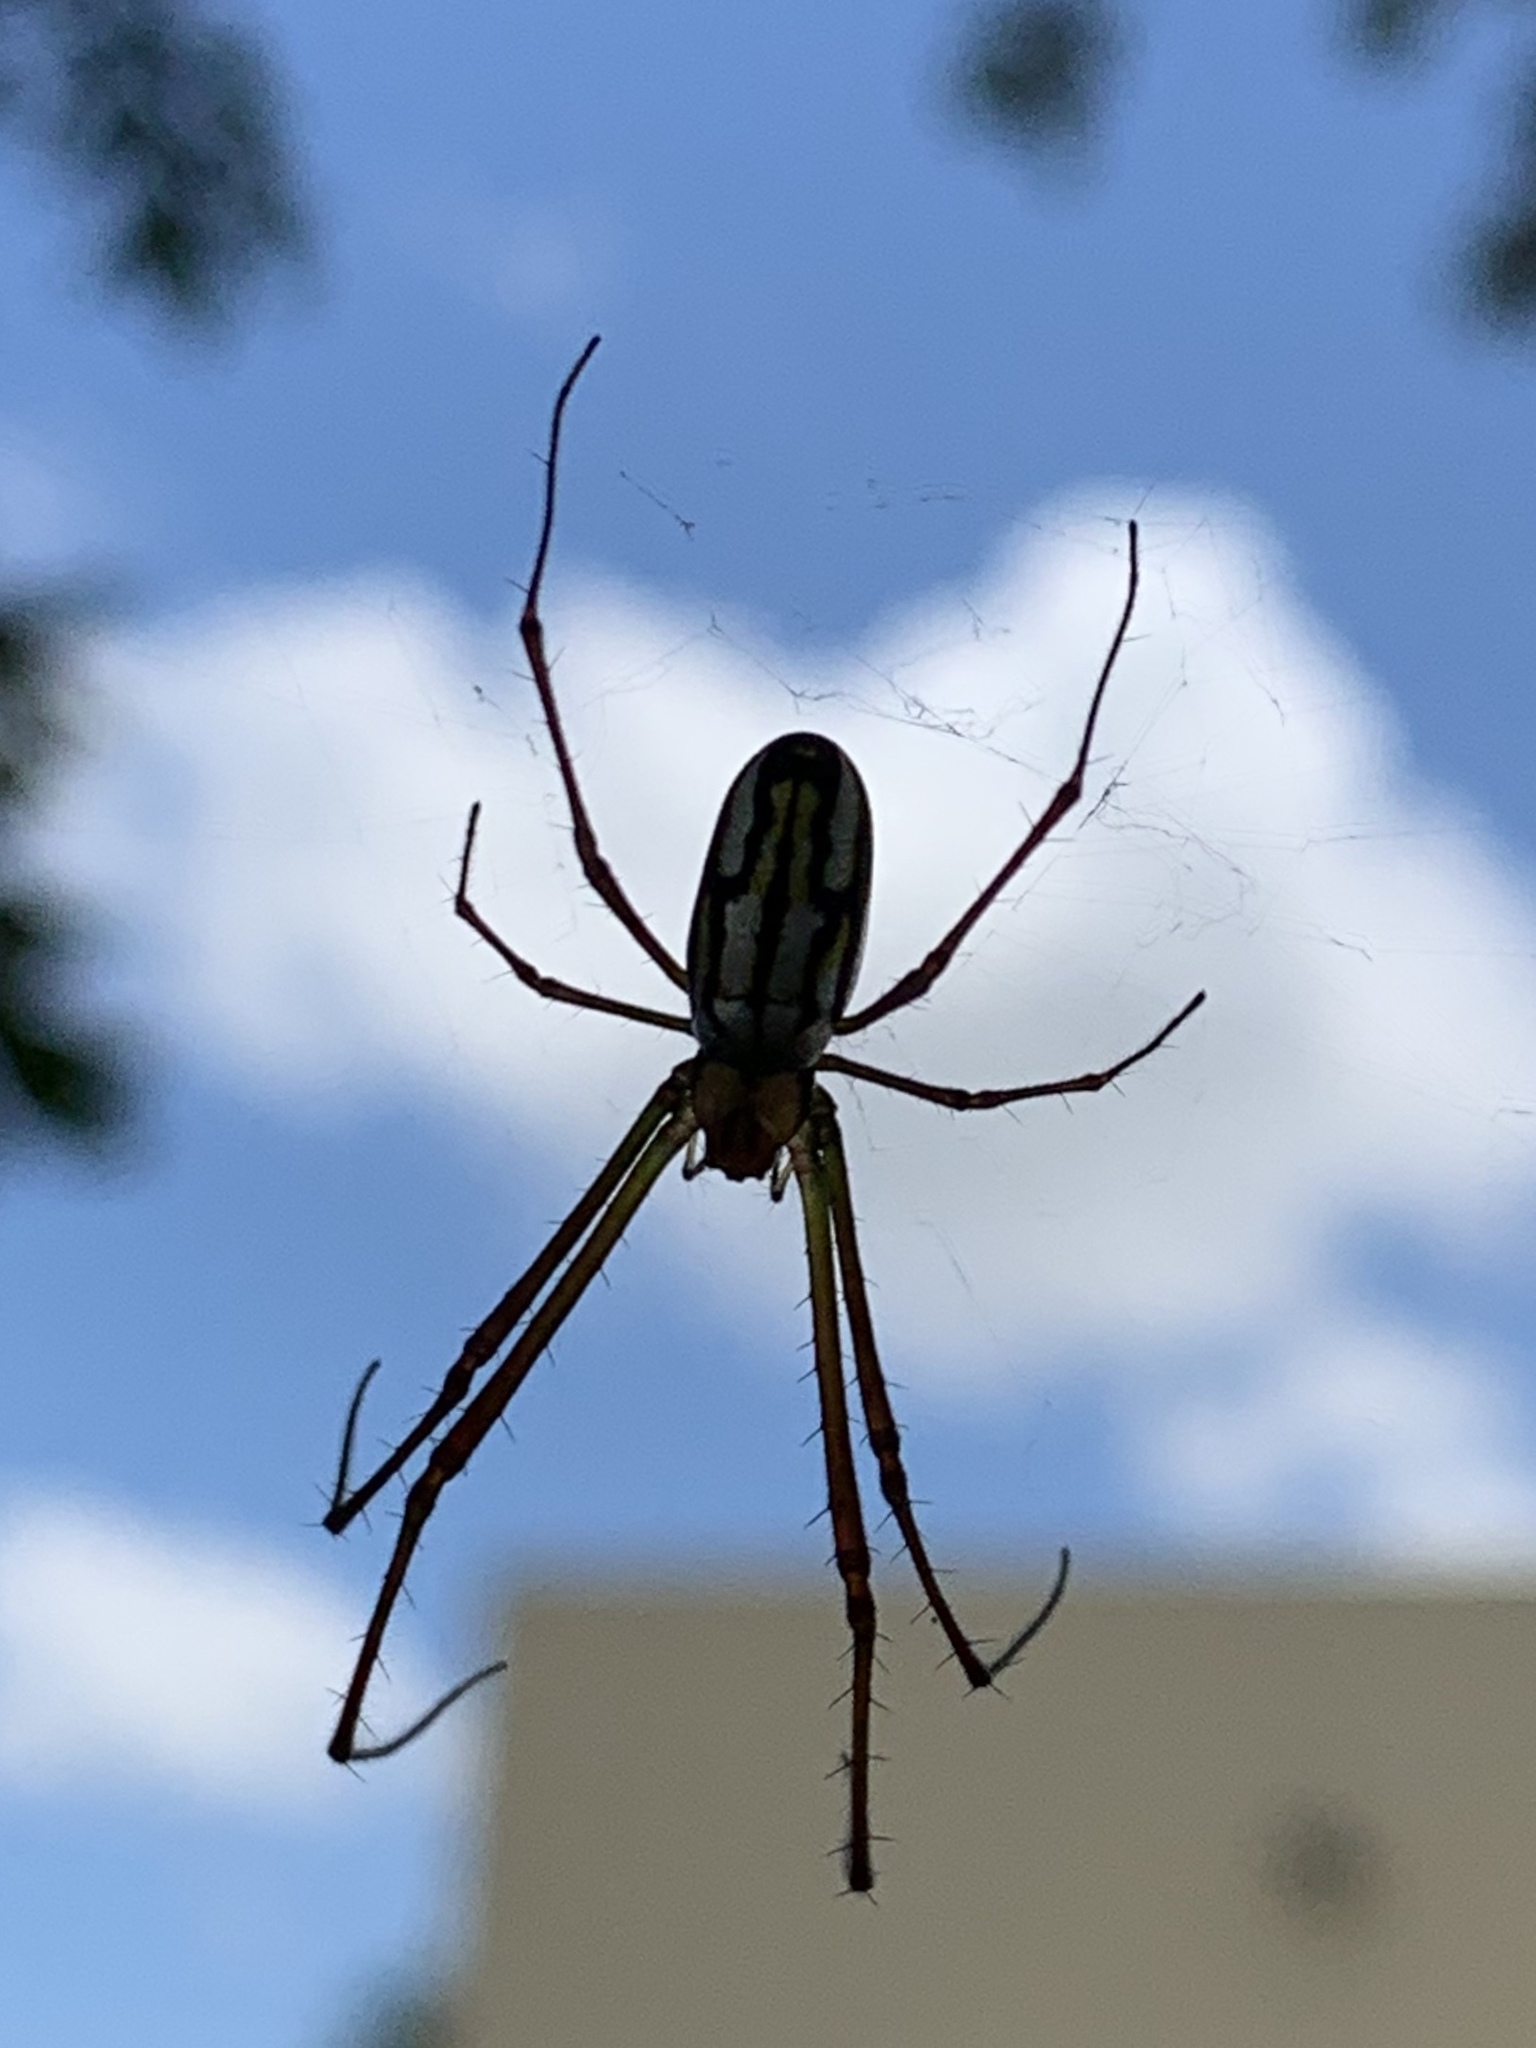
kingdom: Animalia
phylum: Arthropoda
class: Arachnida
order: Araneae
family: Tetragnathidae
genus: Leucauge
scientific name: Leucauge argyra
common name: Longjawed orb weavers
